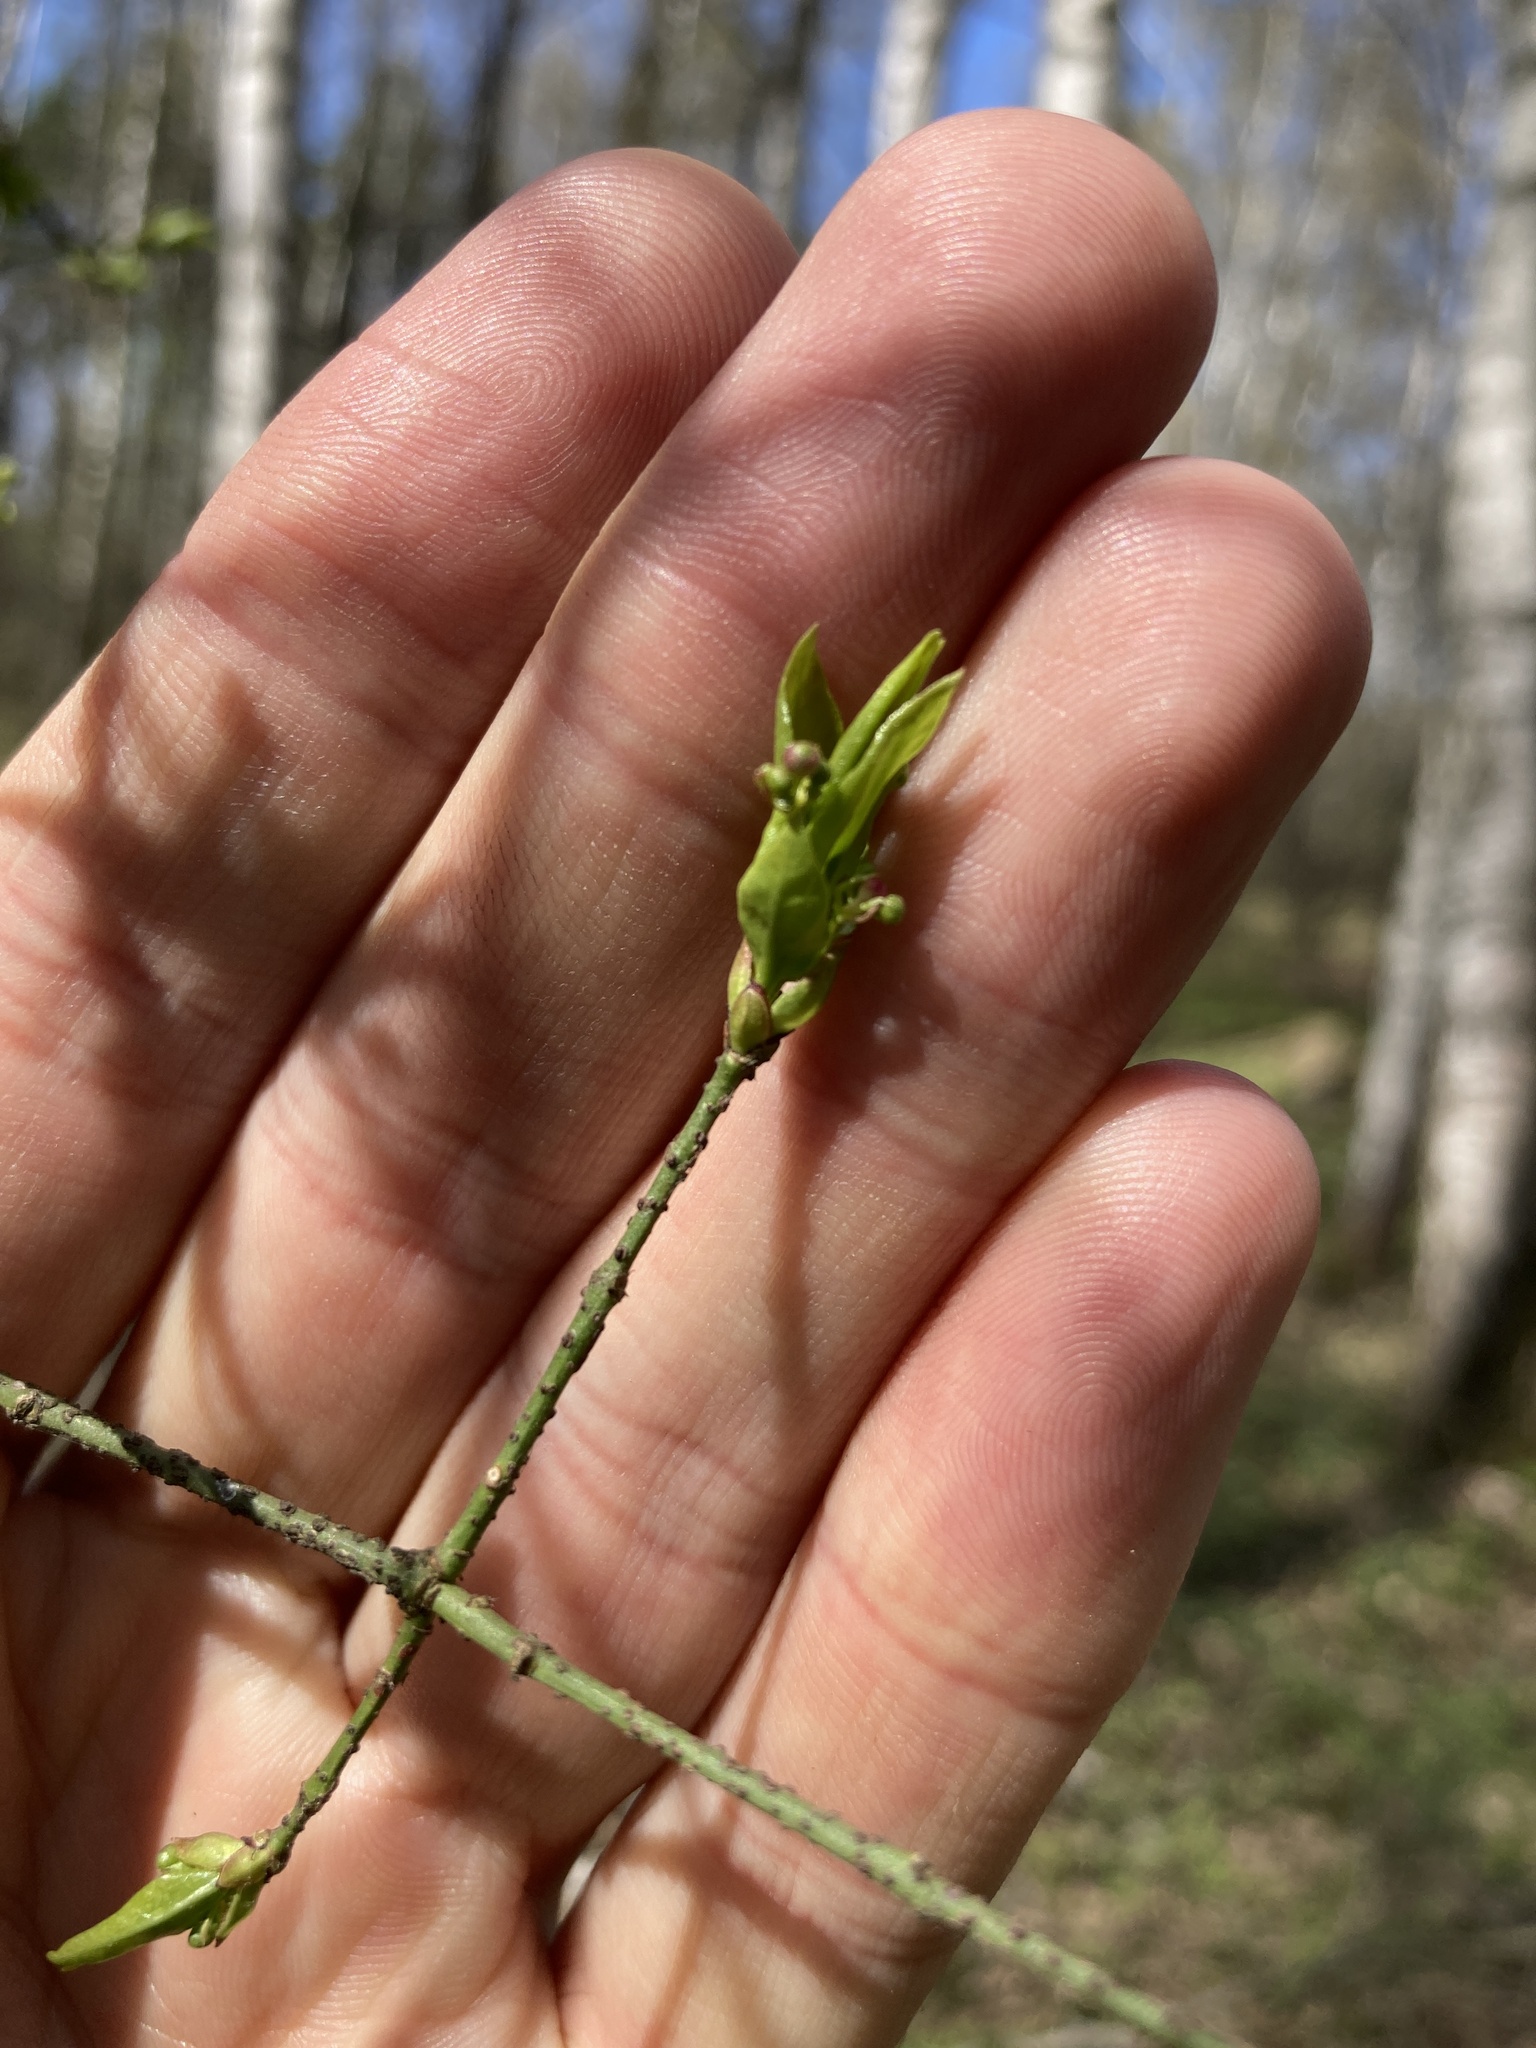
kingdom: Plantae
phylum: Tracheophyta
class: Magnoliopsida
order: Celastrales
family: Celastraceae
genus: Euonymus
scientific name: Euonymus verrucosus
